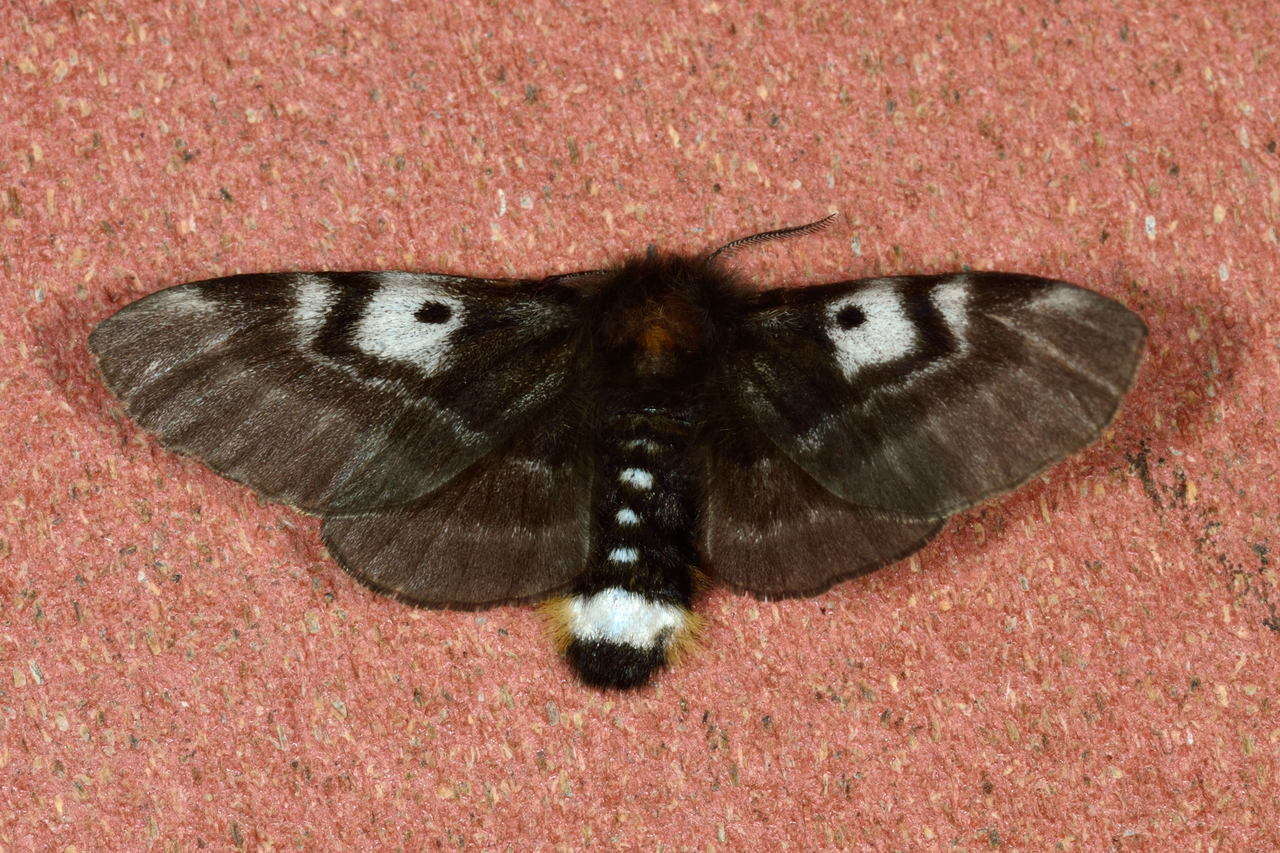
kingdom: Animalia
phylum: Arthropoda
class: Insecta
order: Lepidoptera
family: Anthelidae
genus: Nataxa
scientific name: Nataxa flavescens
